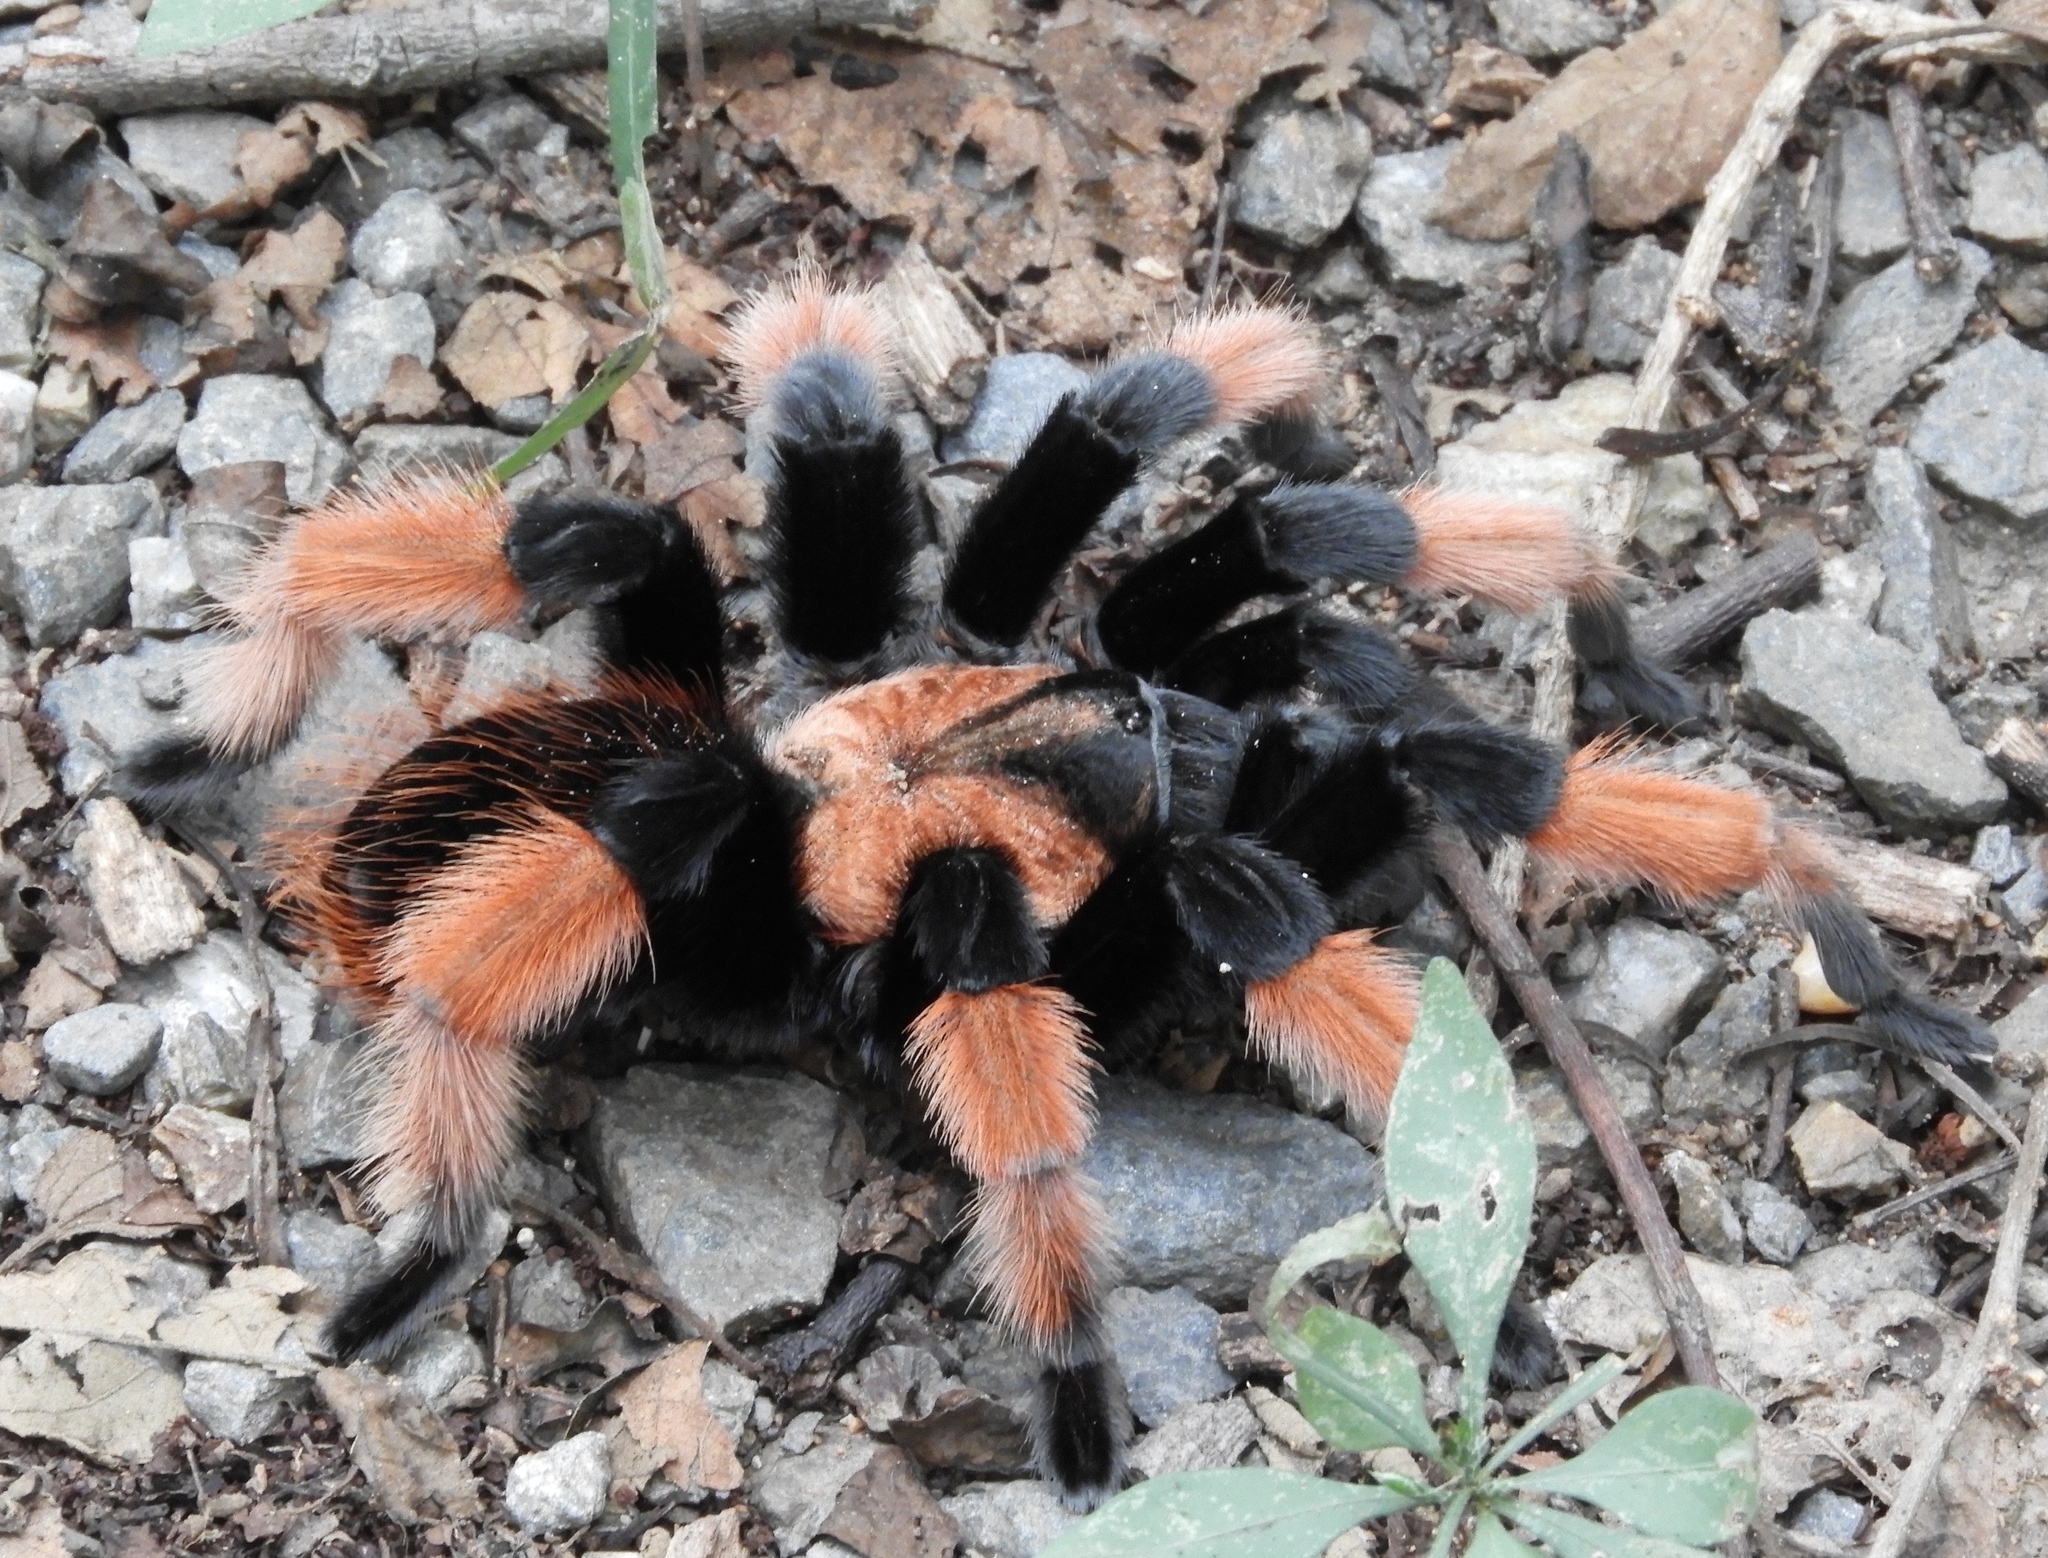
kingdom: Animalia
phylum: Arthropoda
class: Arachnida
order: Araneae
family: Theraphosidae
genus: Brachypelma
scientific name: Brachypelma emilia
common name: Mexican redleg
